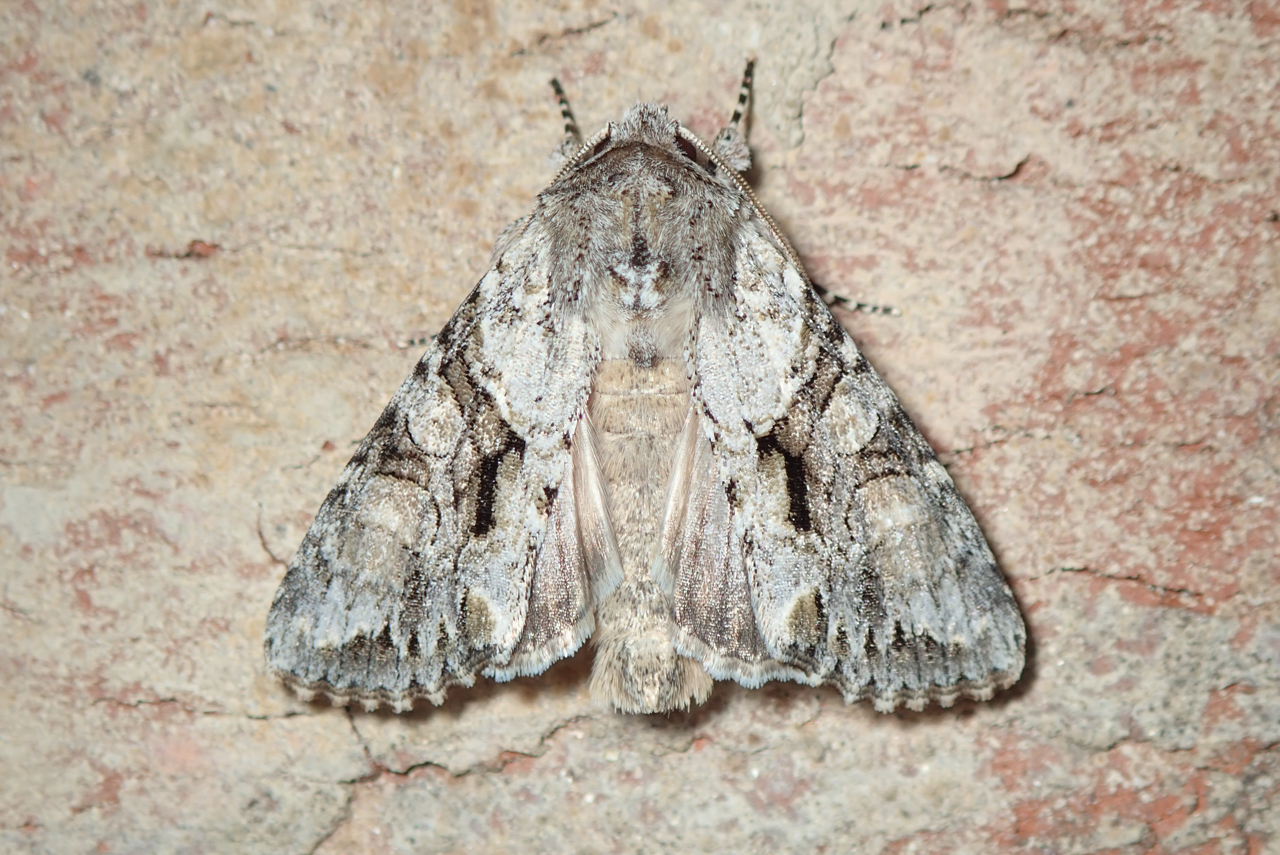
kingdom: Animalia
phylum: Arthropoda
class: Insecta
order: Lepidoptera
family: Noctuidae
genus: Achatia
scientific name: Achatia distincta
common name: Distinct quaker
